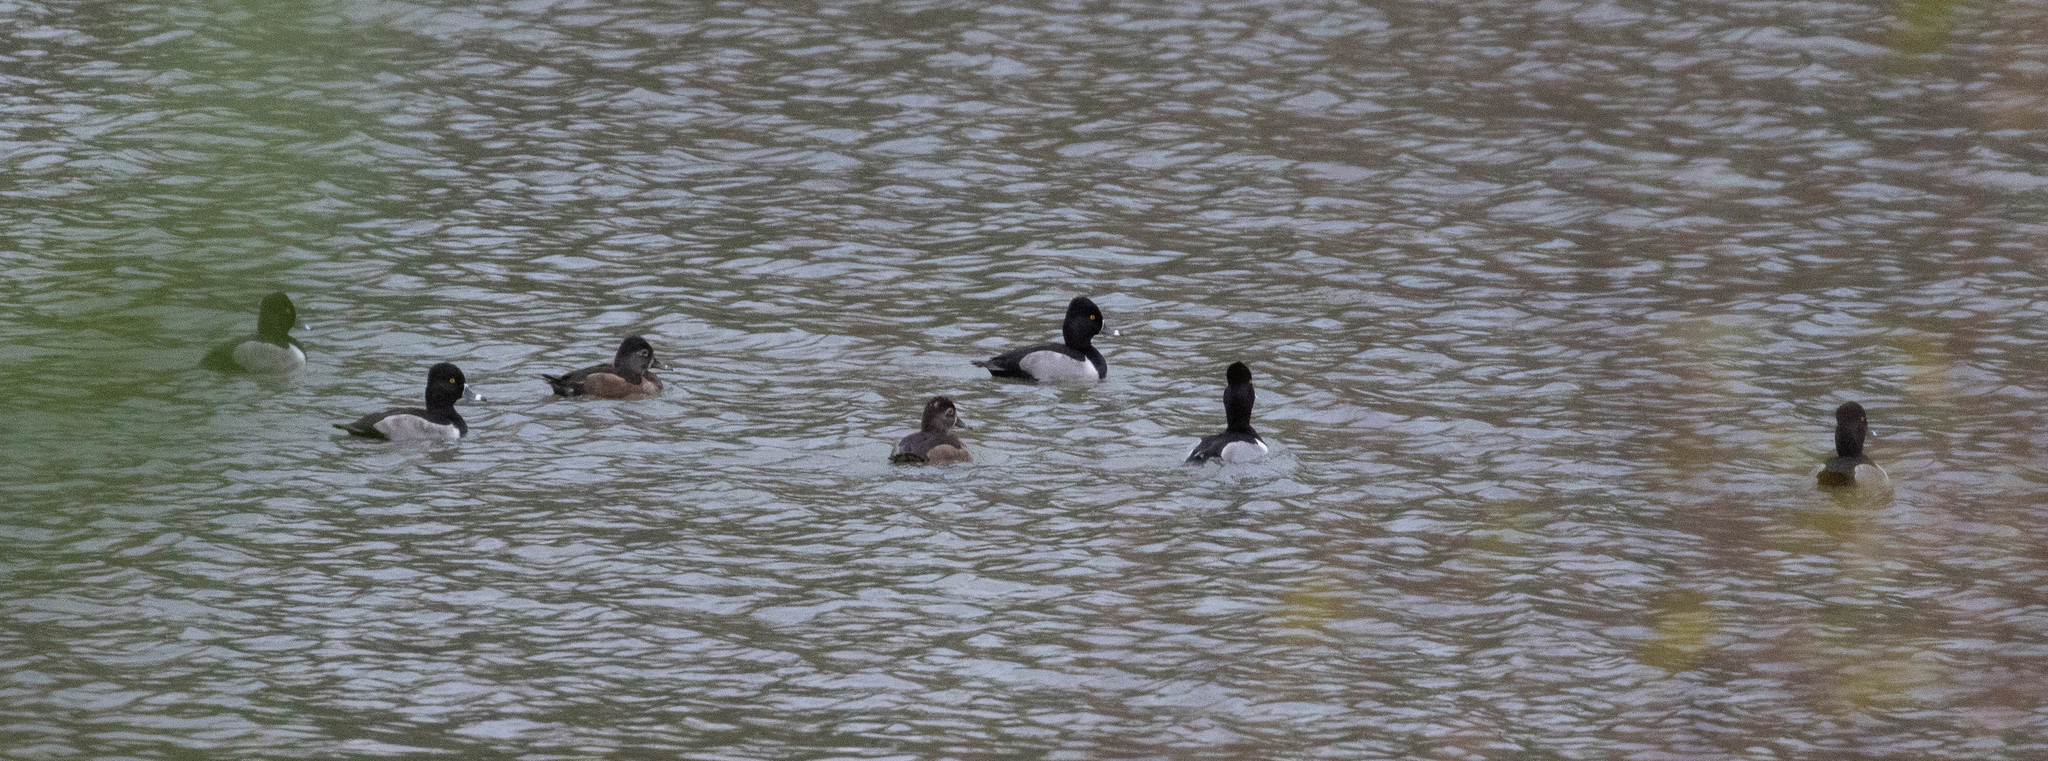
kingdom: Animalia
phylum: Chordata
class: Aves
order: Anseriformes
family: Anatidae
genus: Aythya
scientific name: Aythya collaris
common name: Ring-necked duck
